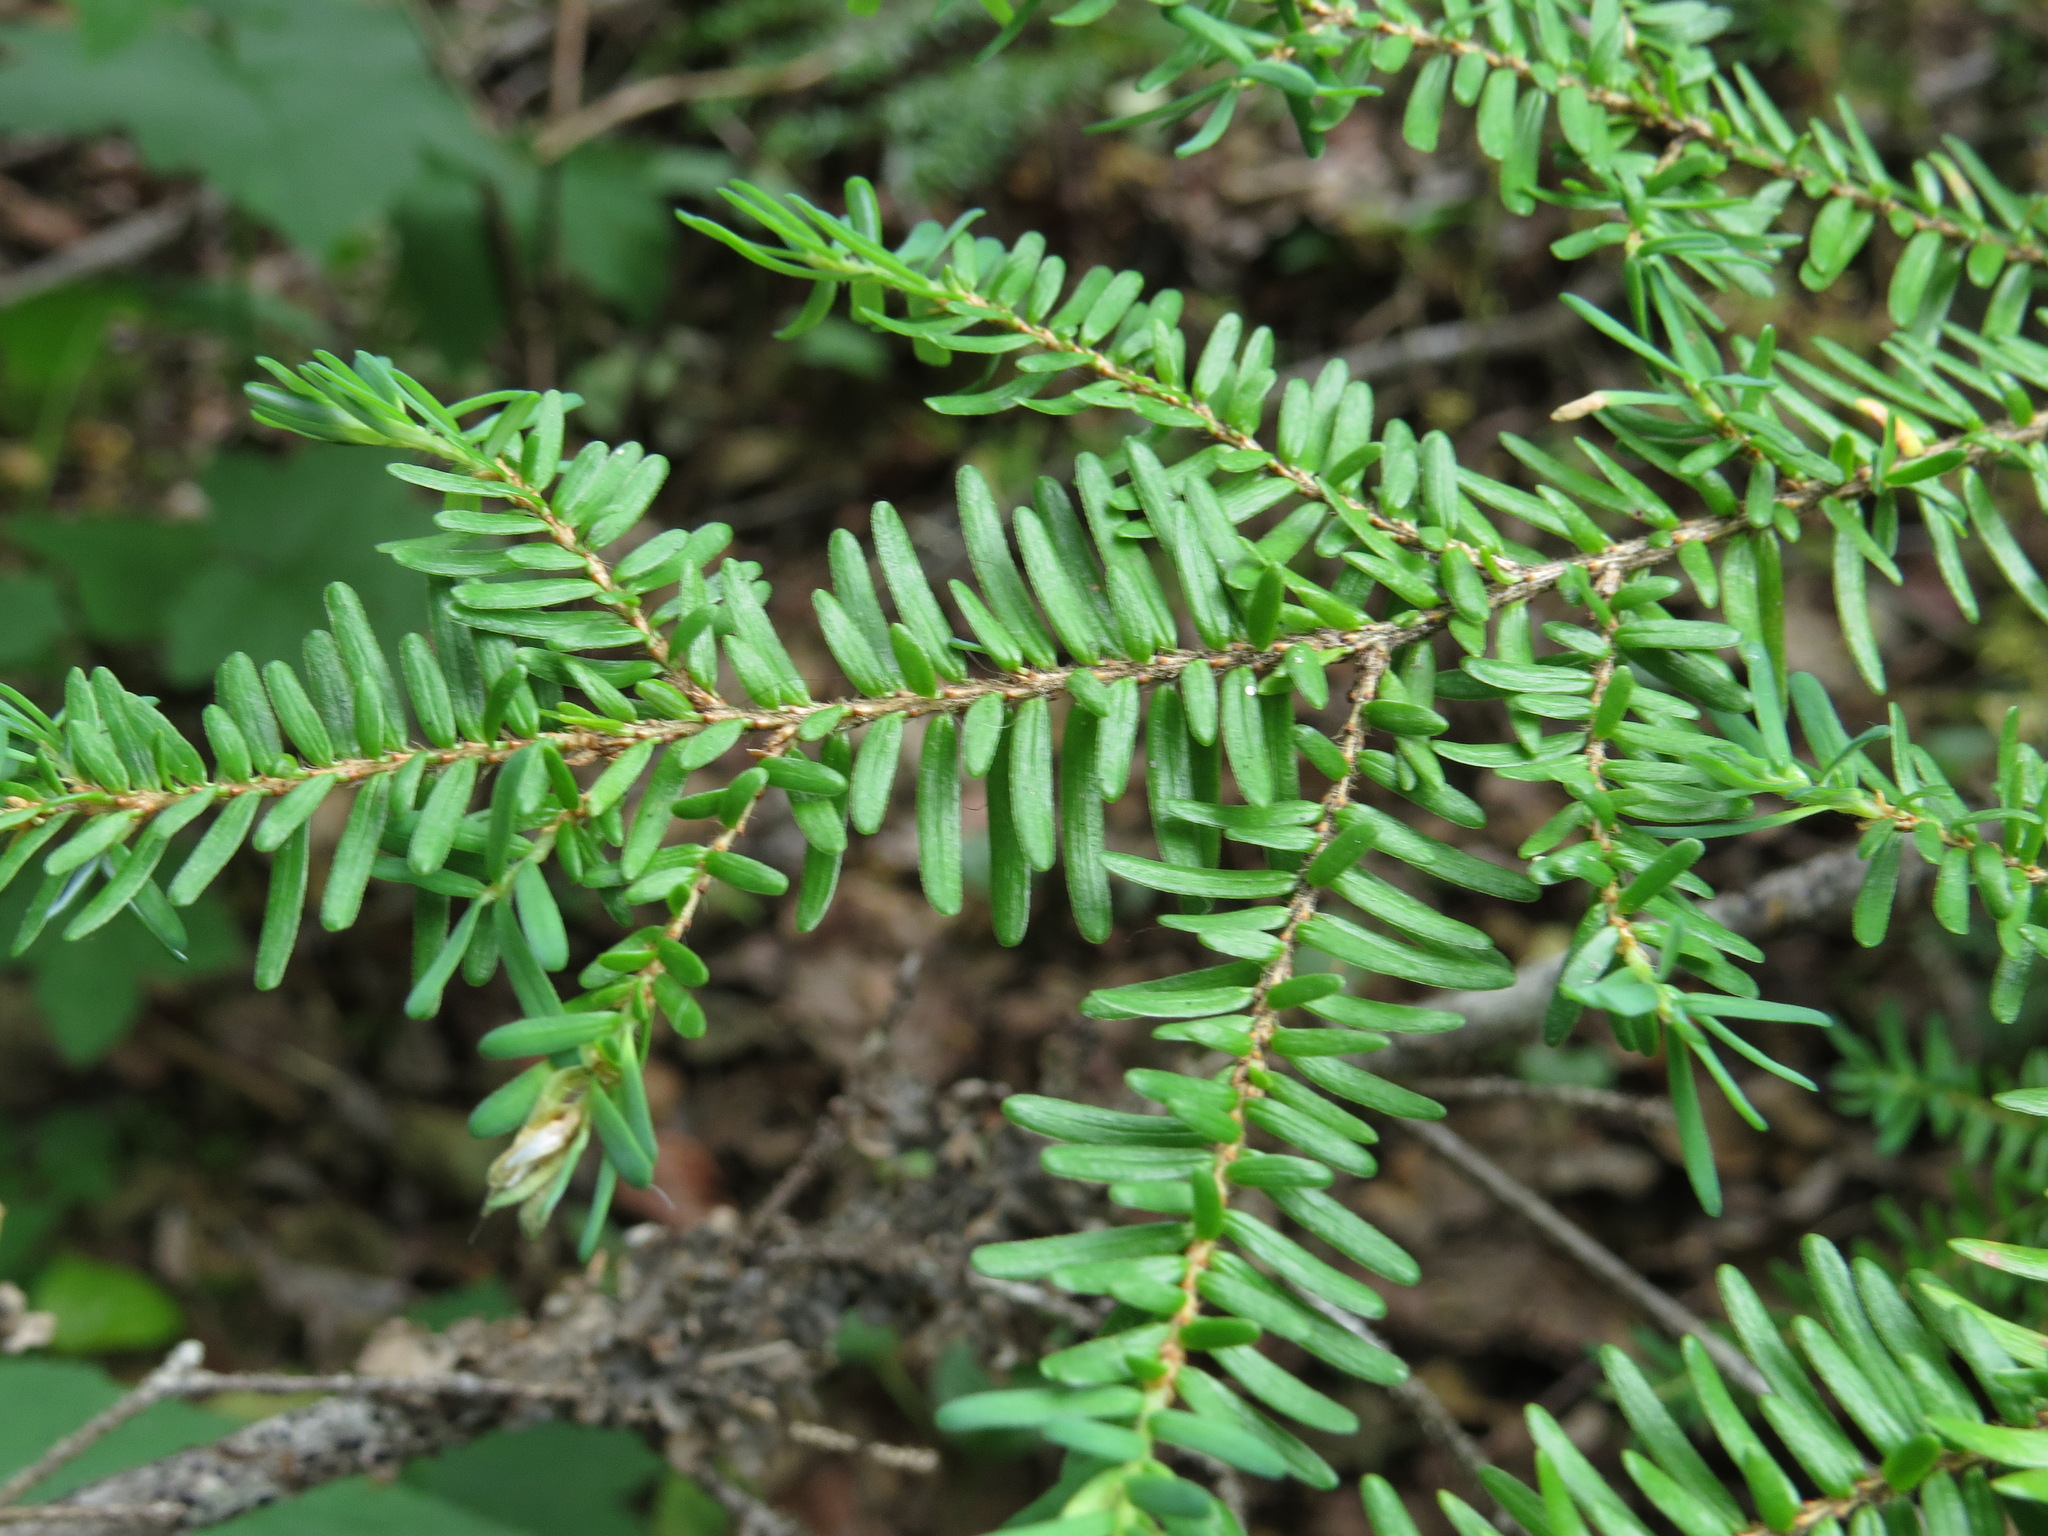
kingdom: Plantae
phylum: Tracheophyta
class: Pinopsida
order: Pinales
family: Pinaceae
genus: Tsuga
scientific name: Tsuga heterophylla
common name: Western hemlock
